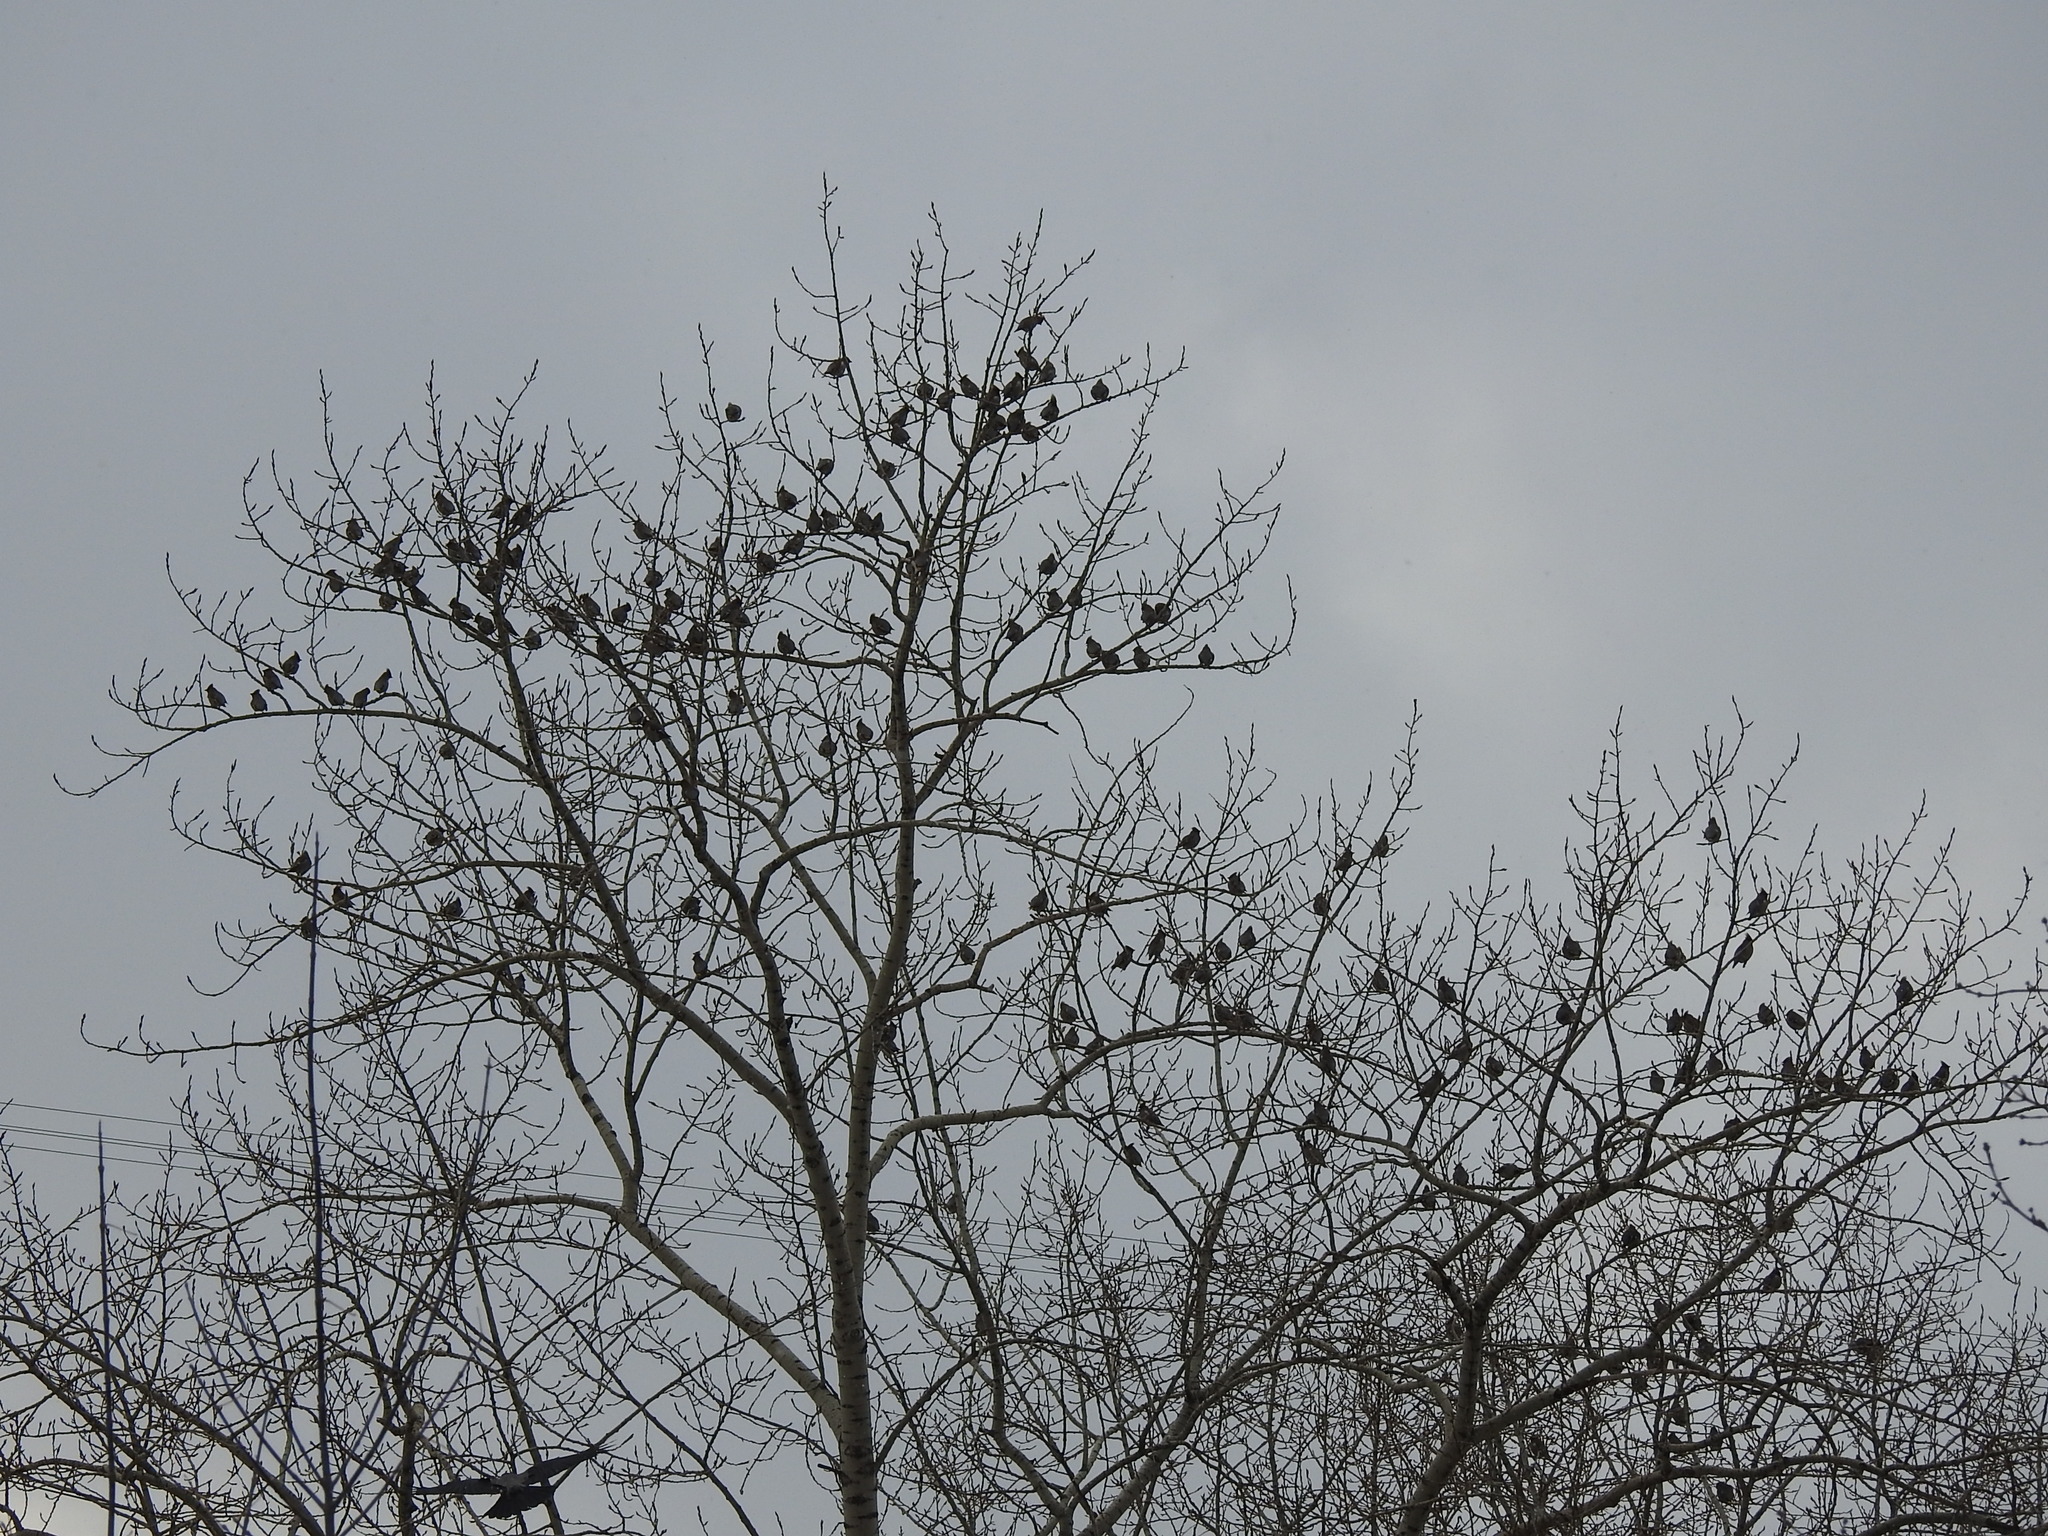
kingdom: Animalia
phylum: Chordata
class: Aves
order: Passeriformes
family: Bombycillidae
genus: Bombycilla
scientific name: Bombycilla garrulus
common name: Bohemian waxwing
